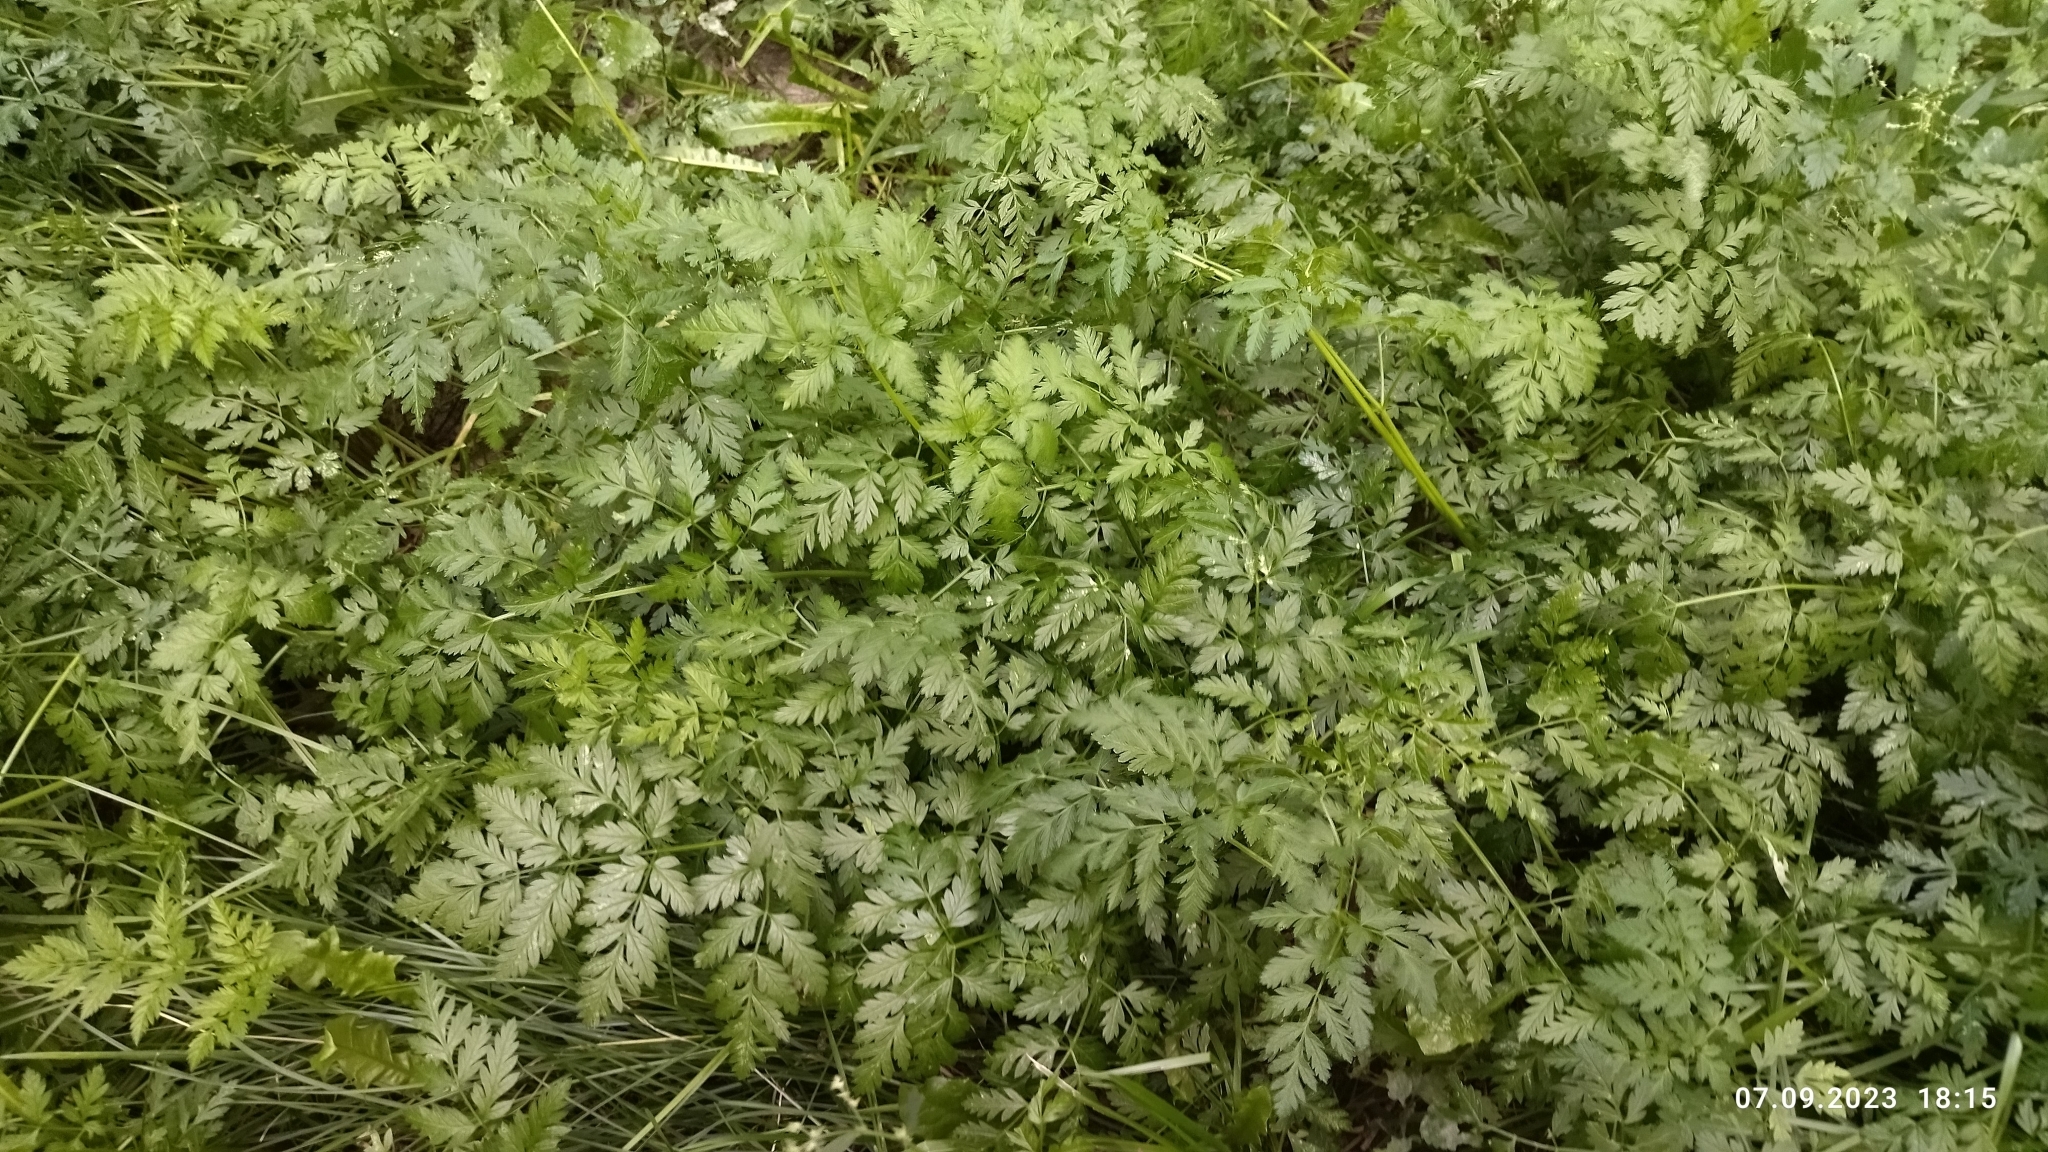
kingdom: Plantae
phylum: Tracheophyta
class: Magnoliopsida
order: Apiales
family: Apiaceae
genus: Anthriscus
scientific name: Anthriscus sylvestris
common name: Cow parsley
